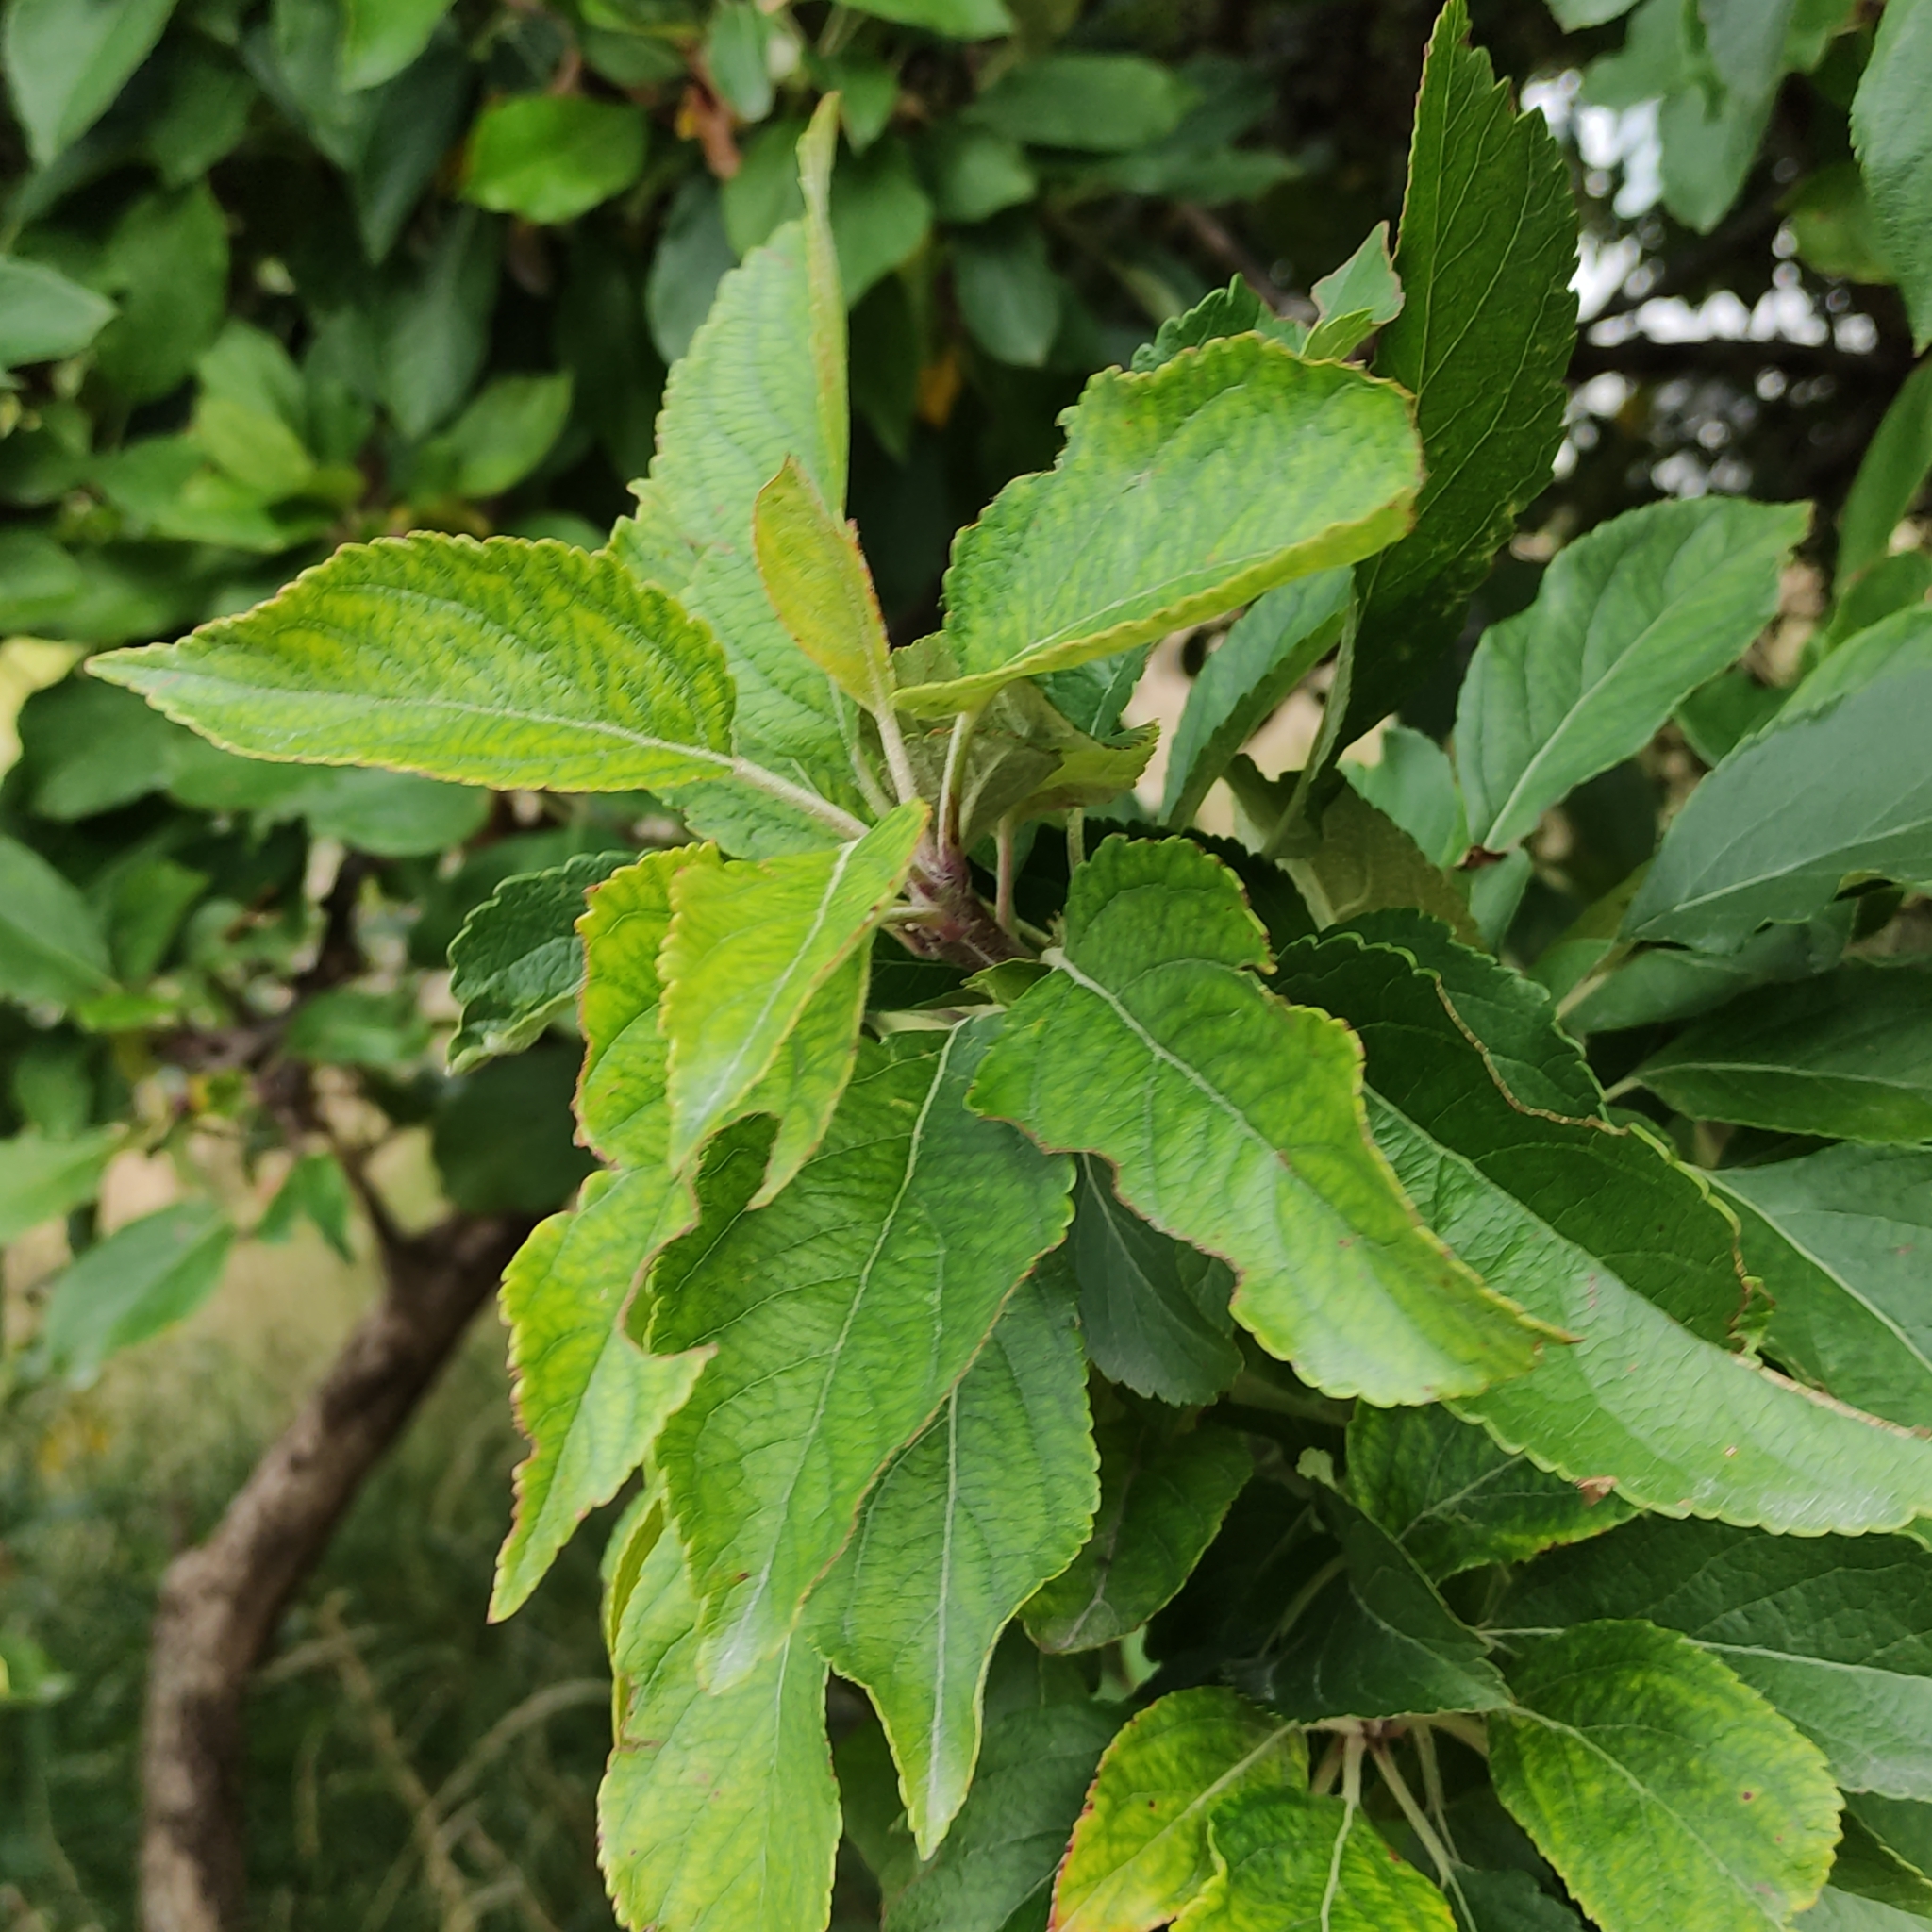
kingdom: Plantae
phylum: Tracheophyta
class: Magnoliopsida
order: Rosales
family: Rosaceae
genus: Malus
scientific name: Malus domestica
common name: Apple
